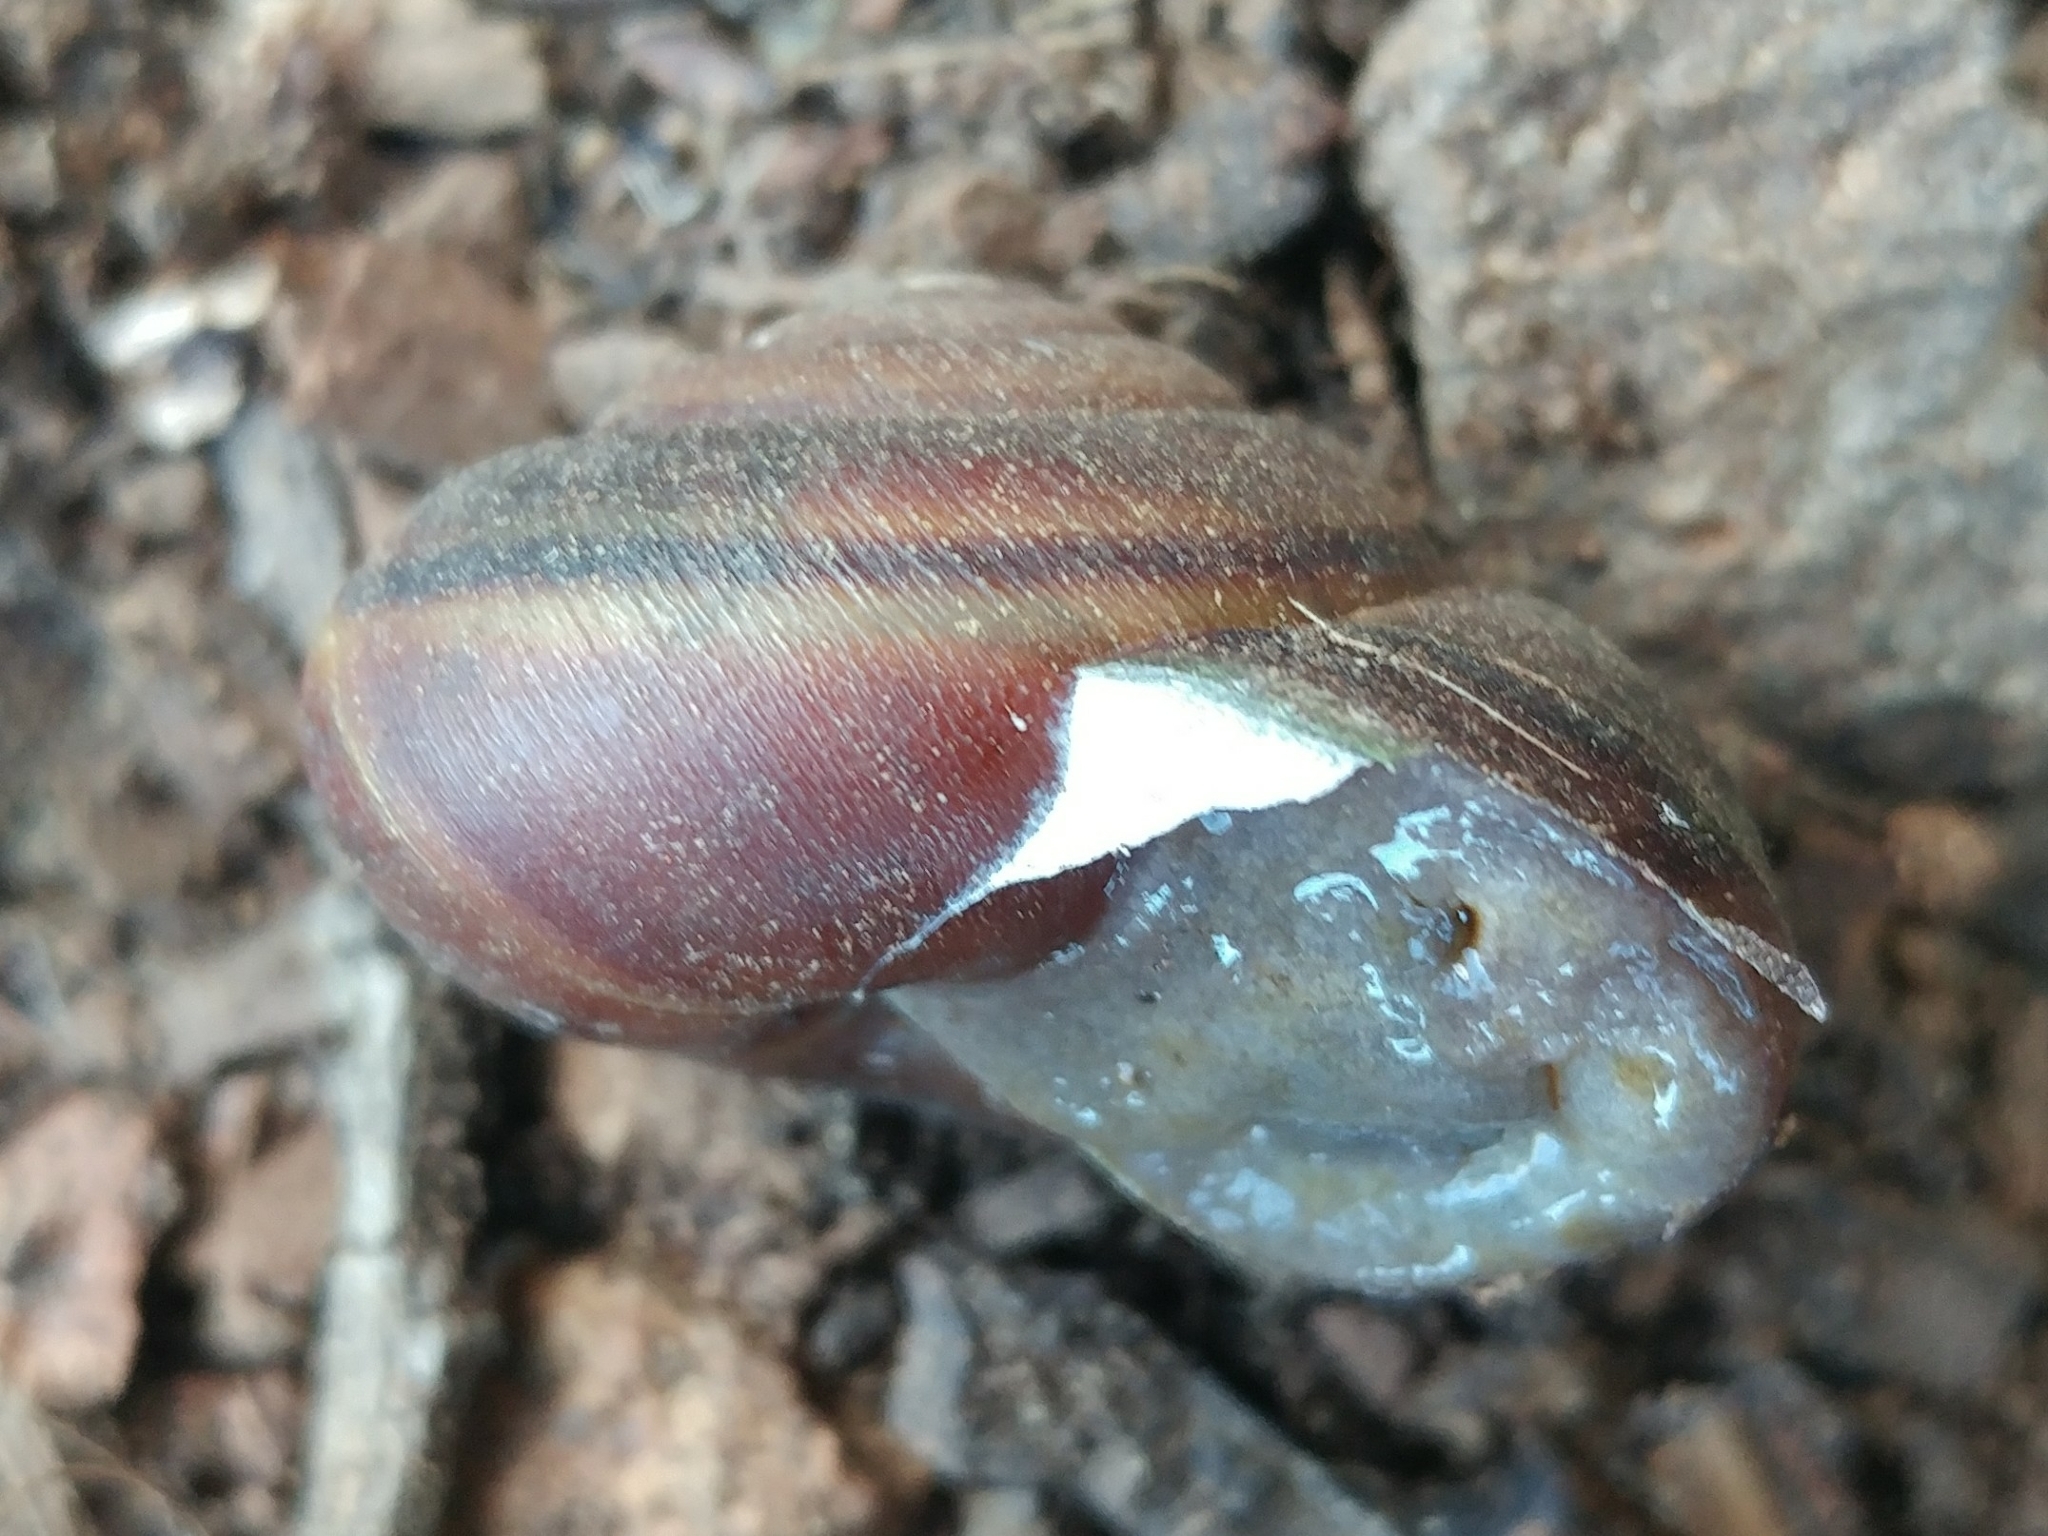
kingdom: Animalia
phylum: Mollusca
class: Gastropoda
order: Stylommatophora
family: Xanthonychidae
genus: Helminthoglypta
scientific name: Helminthoglypta sanctaecrucis
